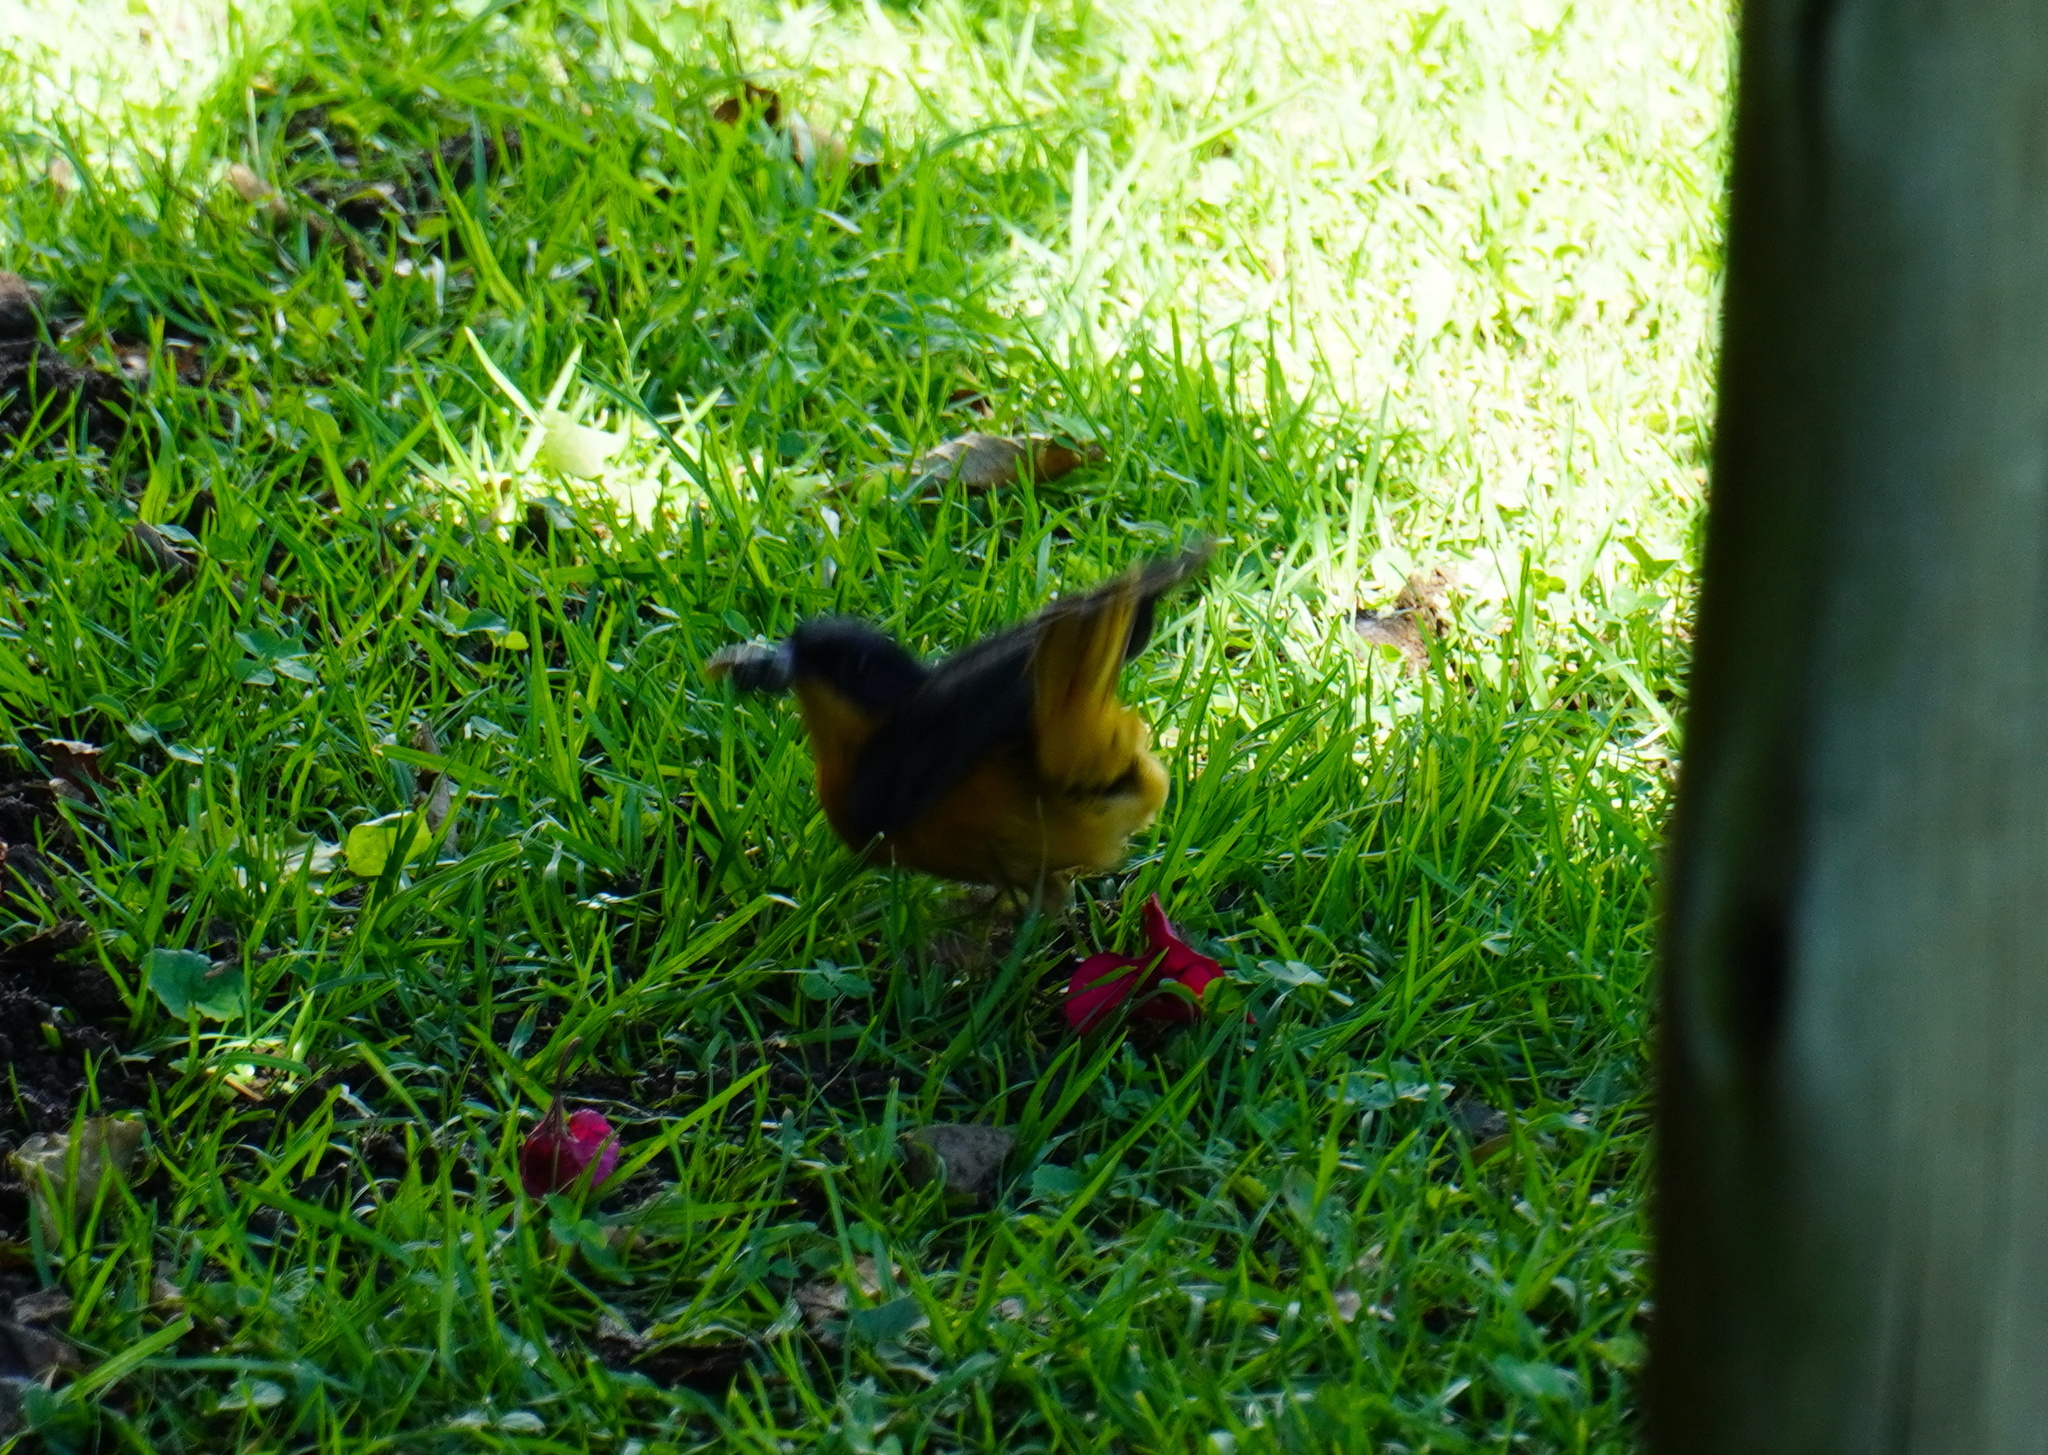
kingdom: Animalia
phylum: Chordata
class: Aves
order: Passeriformes
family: Muscicapidae
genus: Cossypha
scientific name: Cossypha dichroa
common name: Chorister robin-chat
